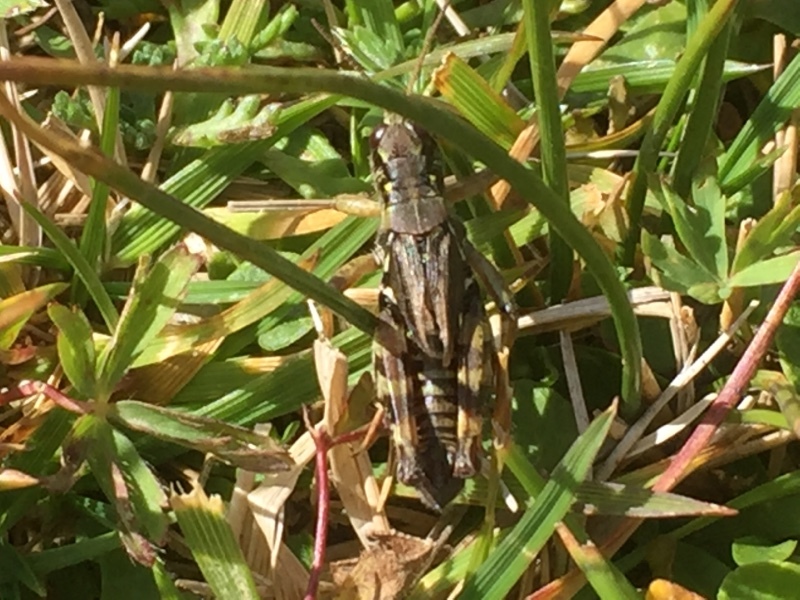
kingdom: Animalia
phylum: Arthropoda
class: Insecta
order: Orthoptera
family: Acrididae
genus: Bohemanella
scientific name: Bohemanella frigida
